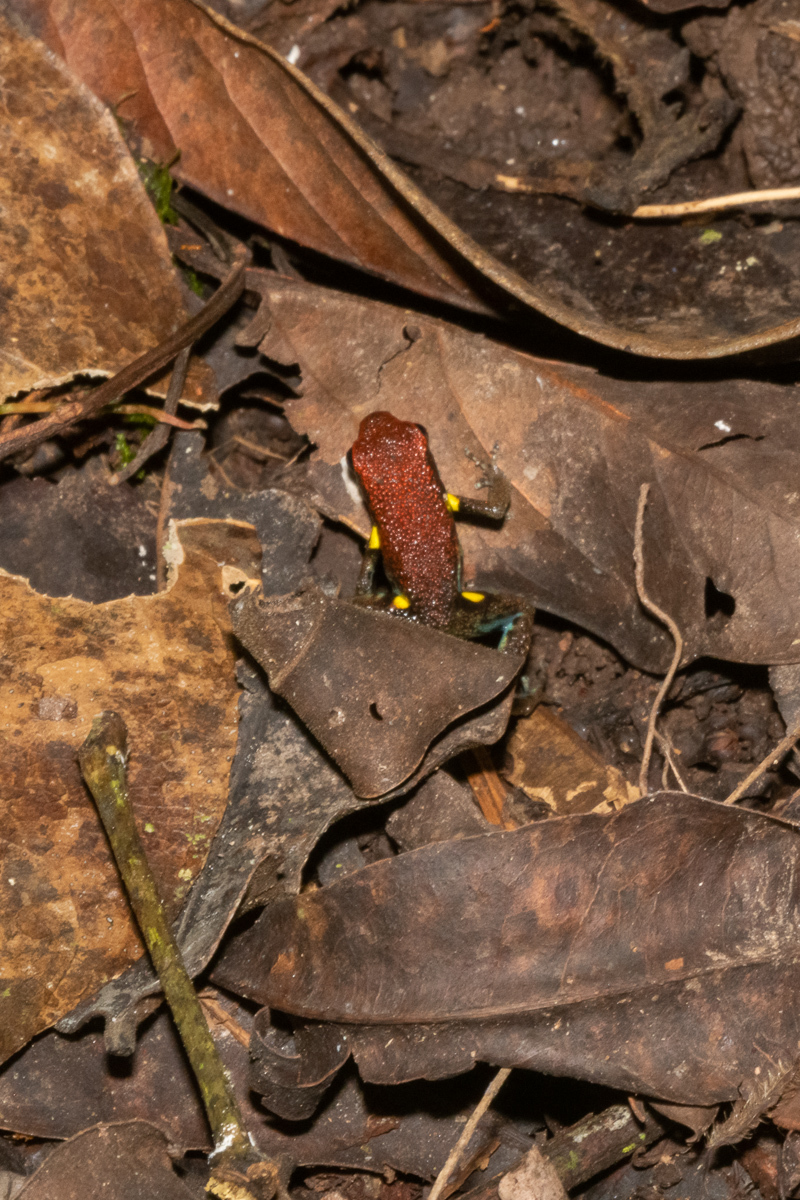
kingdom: Animalia
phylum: Chordata
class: Amphibia
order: Anura
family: Dendrobatidae
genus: Ameerega
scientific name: Ameerega bilinguis
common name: Ecuadorean poison frog
